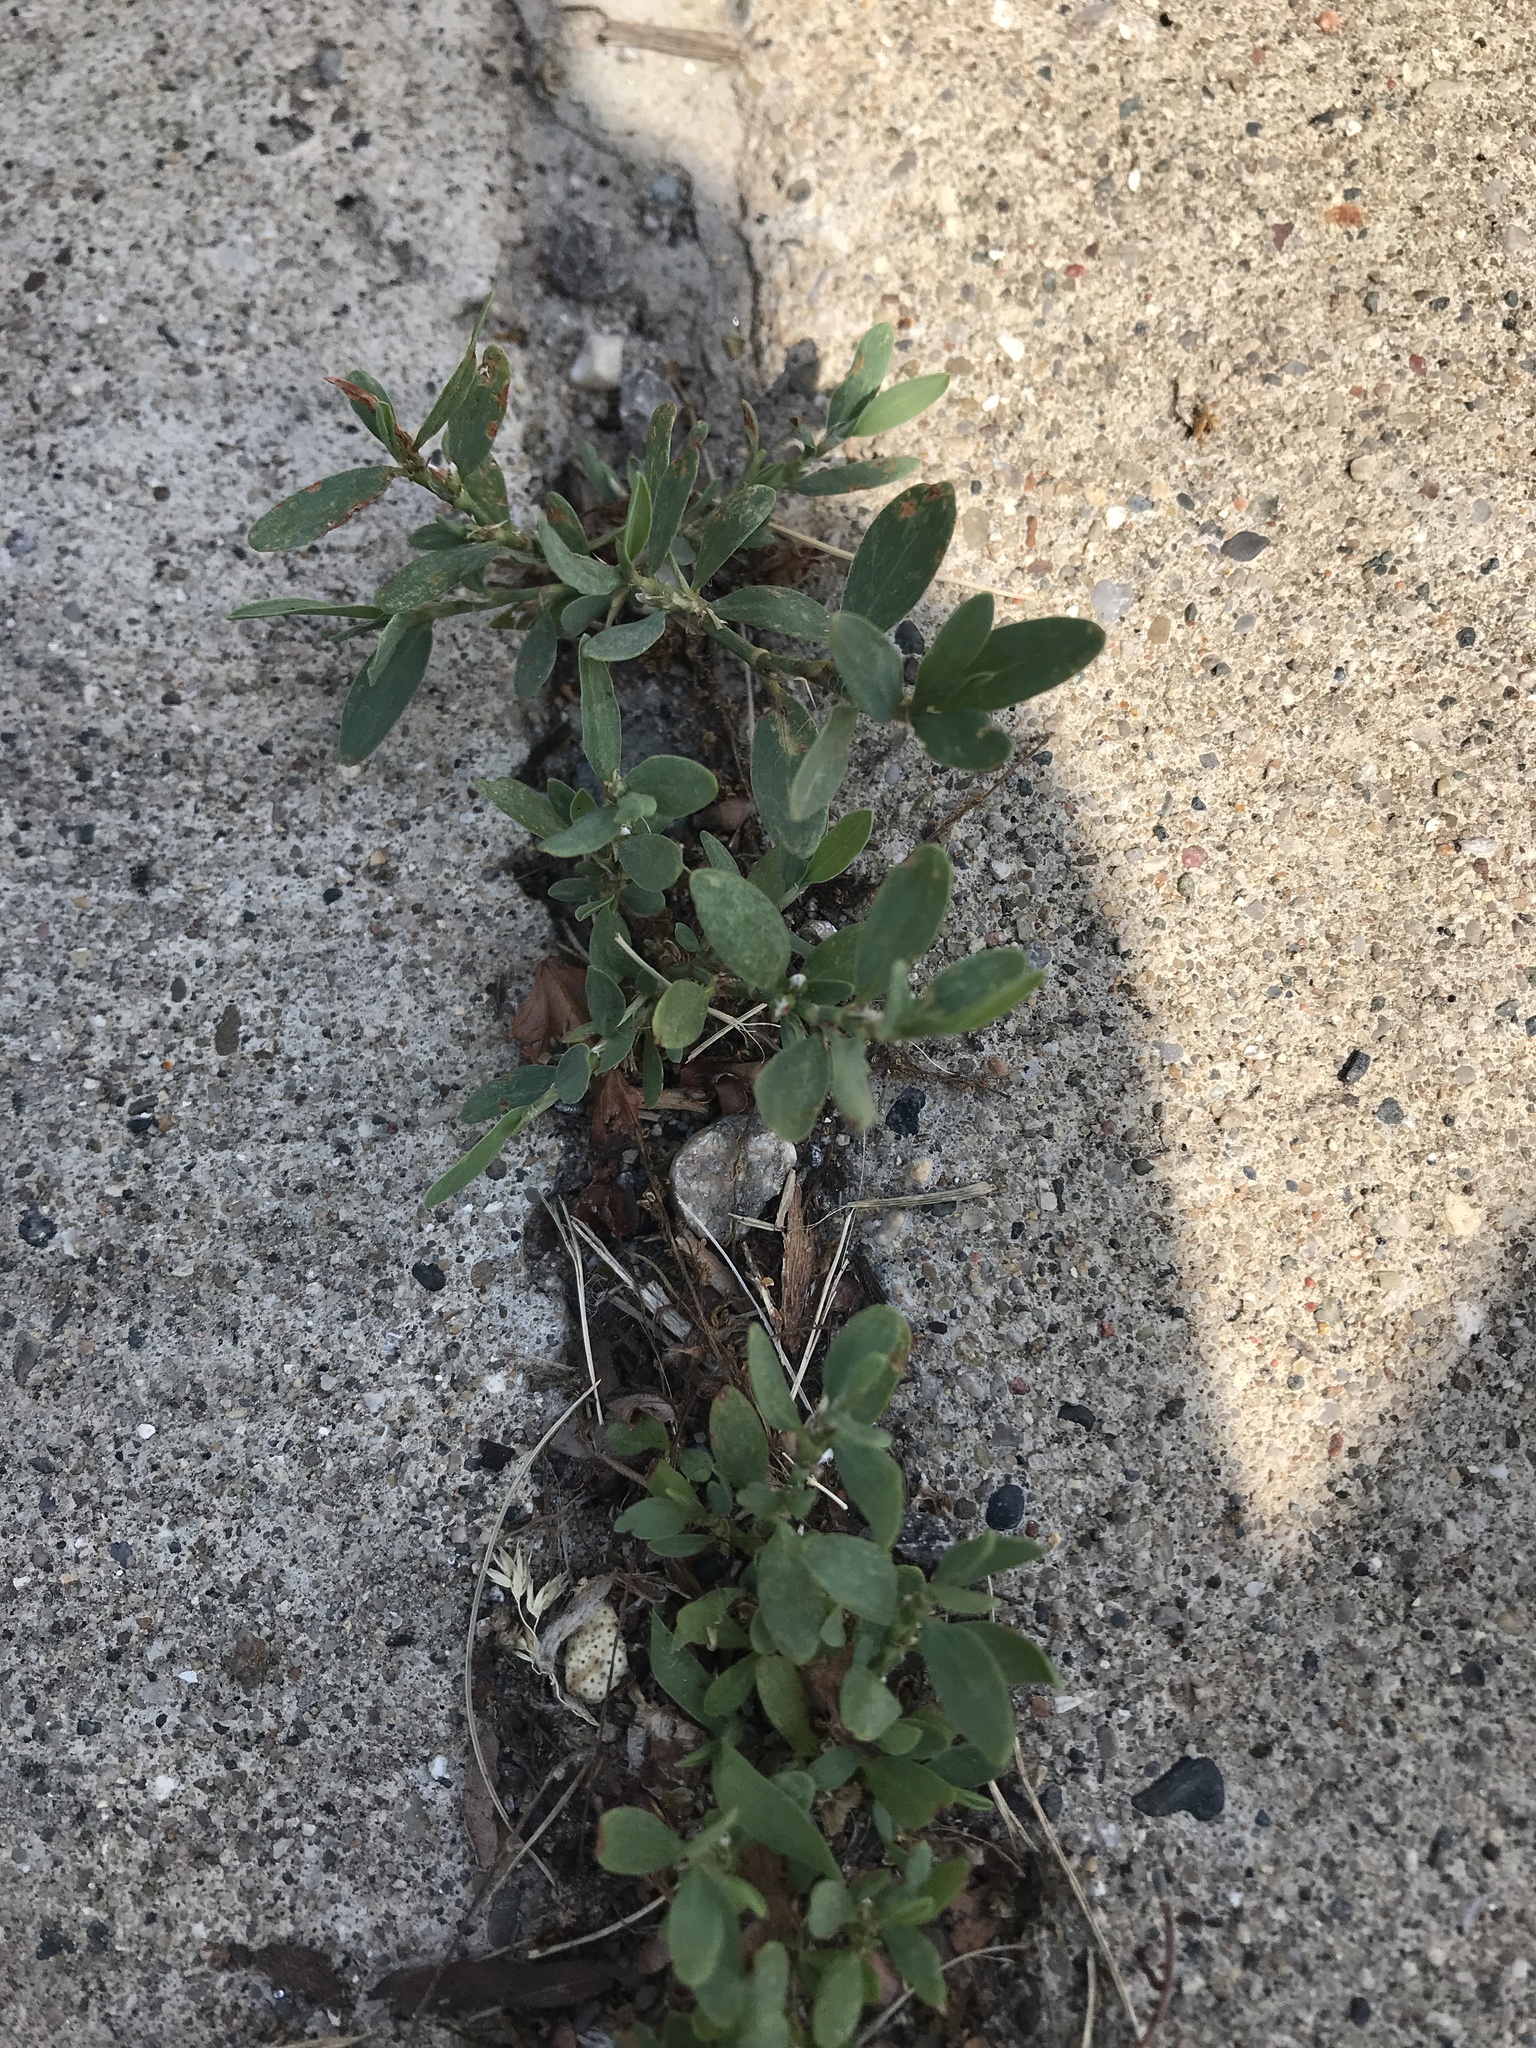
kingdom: Plantae
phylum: Tracheophyta
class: Magnoliopsida
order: Caryophyllales
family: Polygonaceae
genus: Polygonum
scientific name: Polygonum aviculare
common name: Prostrate knotweed
